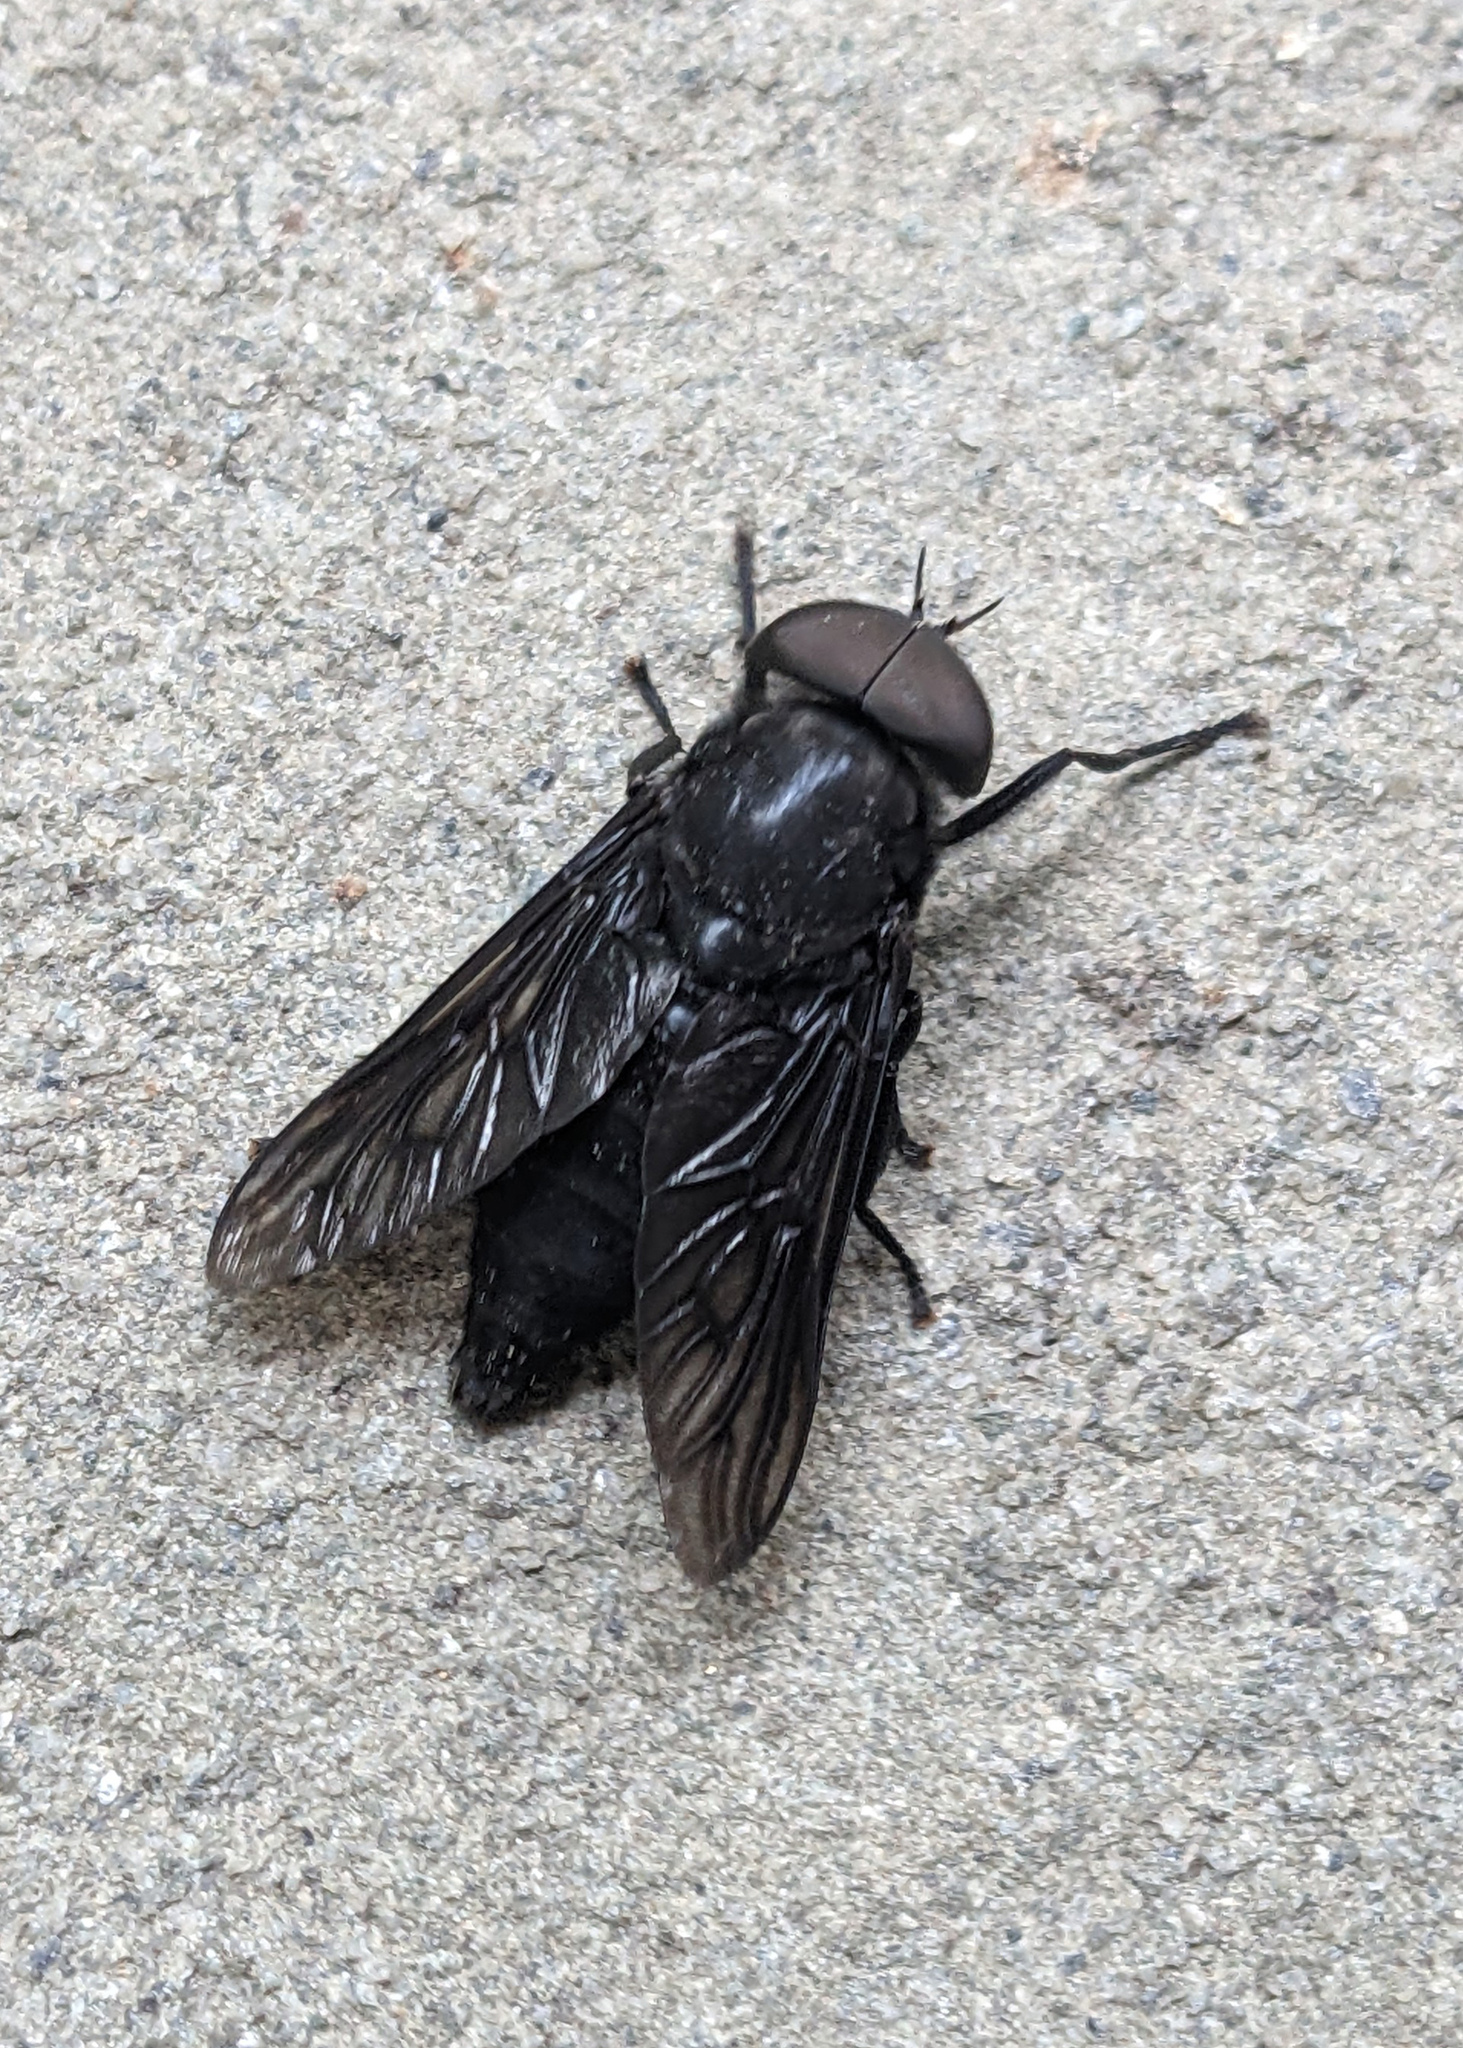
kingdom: Animalia
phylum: Arthropoda
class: Insecta
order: Diptera
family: Tabanidae
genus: Tabanus
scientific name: Tabanus atratus
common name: Black horse fly
